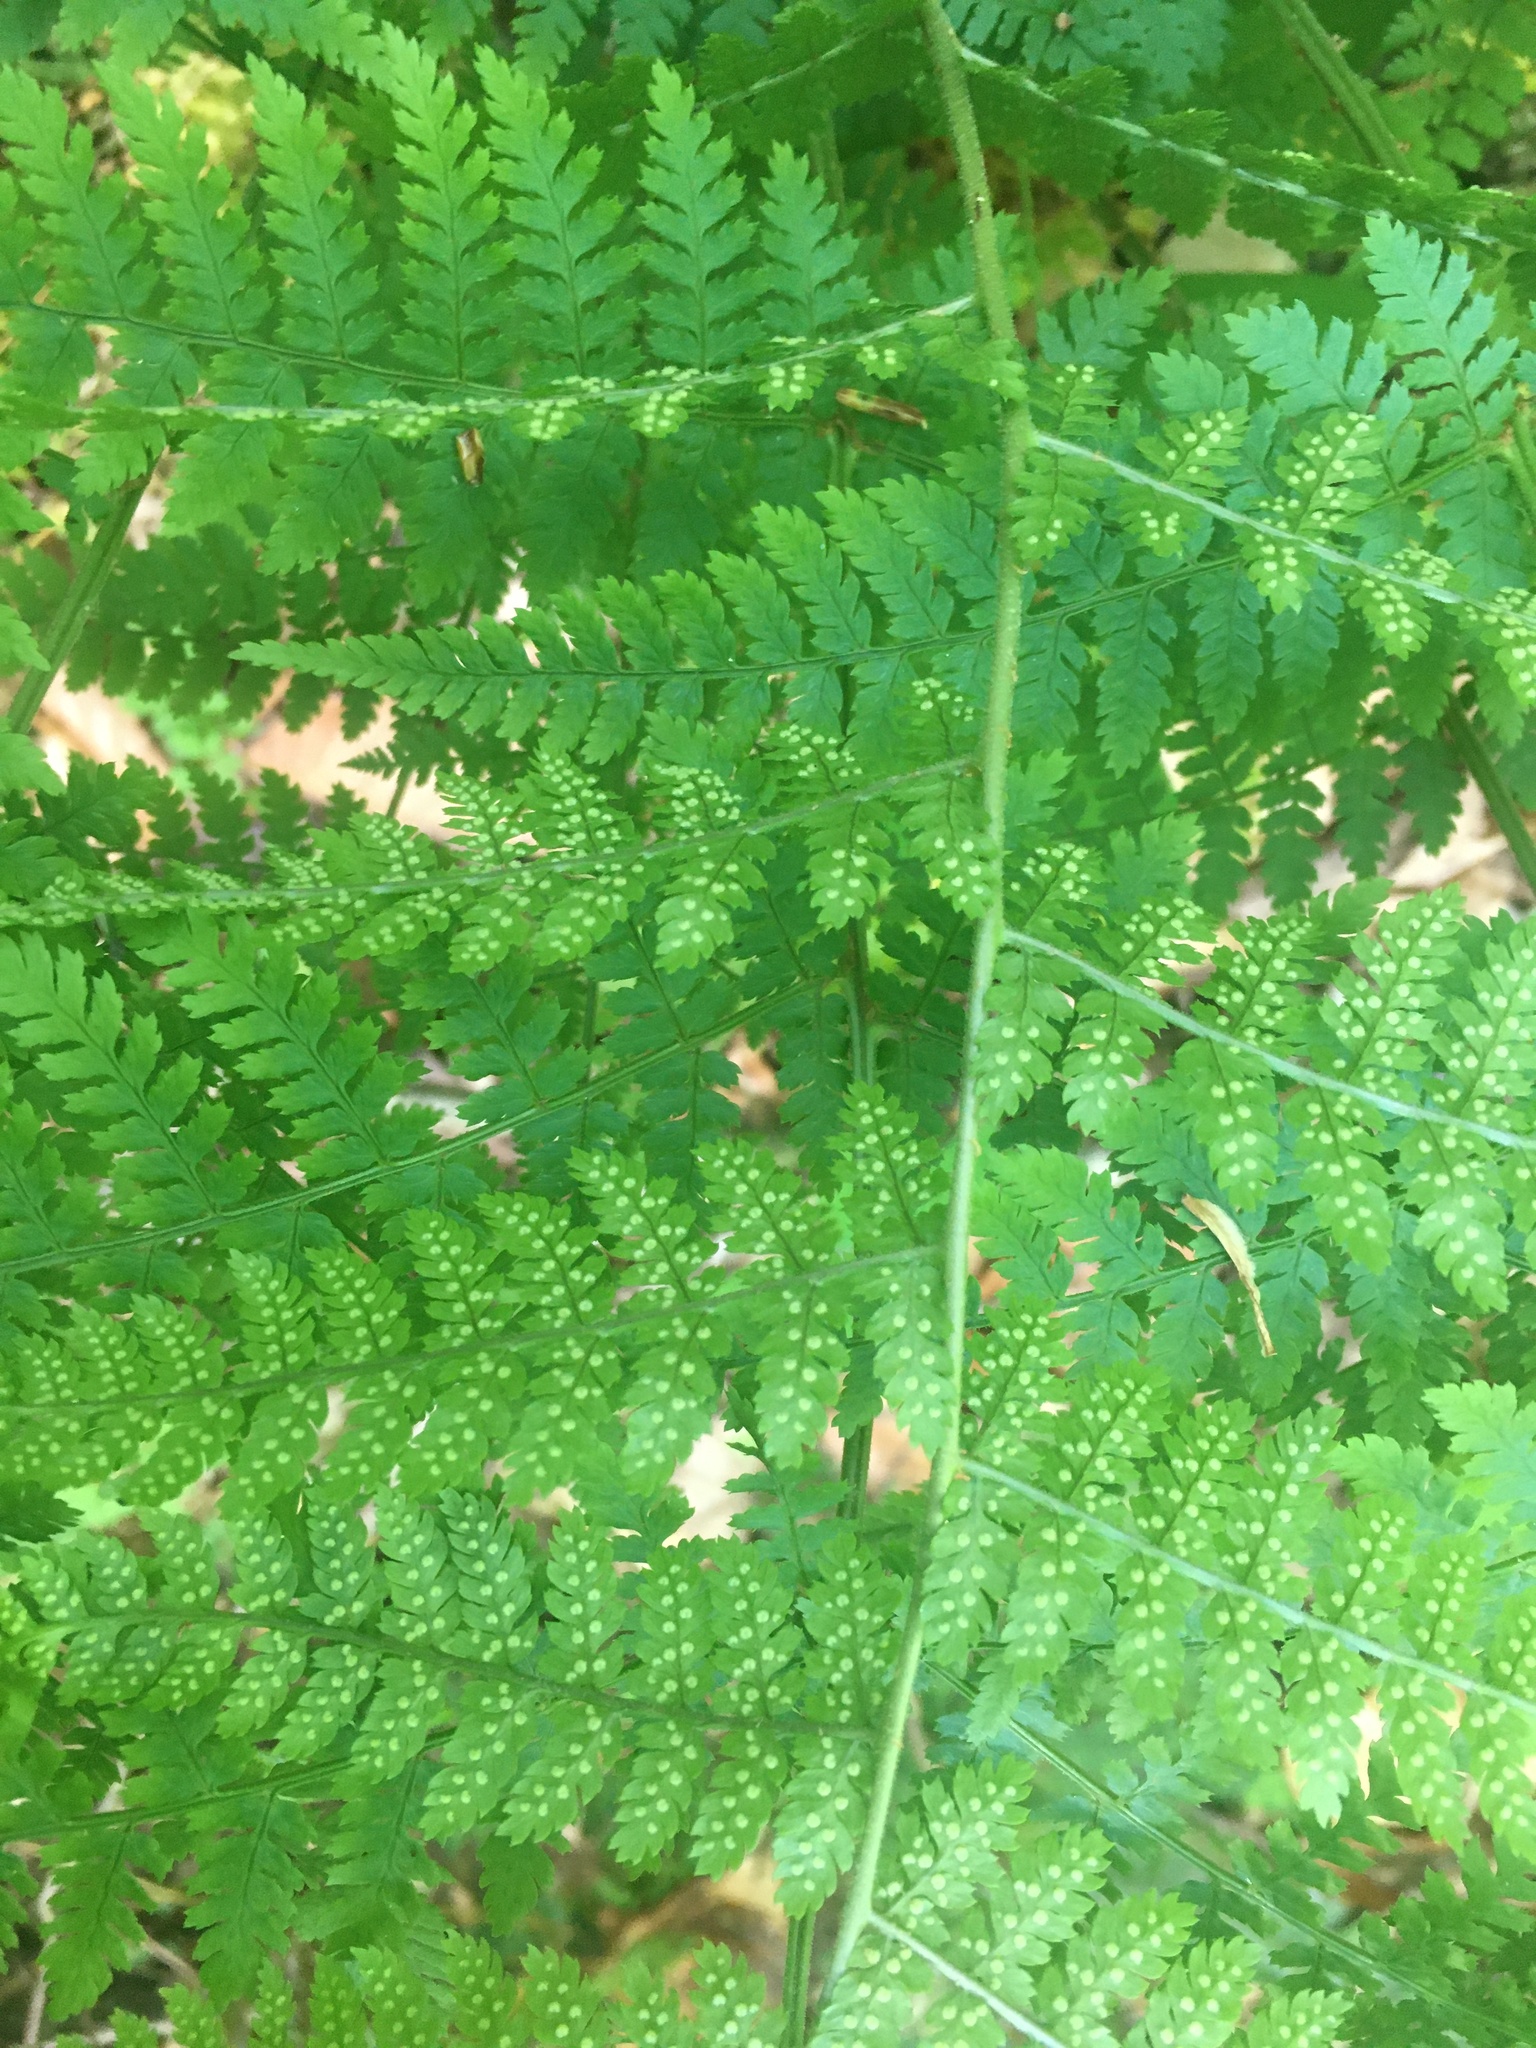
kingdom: Plantae
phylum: Tracheophyta
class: Polypodiopsida
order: Polypodiales
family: Dryopteridaceae
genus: Dryopteris
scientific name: Dryopteris carthusiana
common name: Narrow buckler-fern
